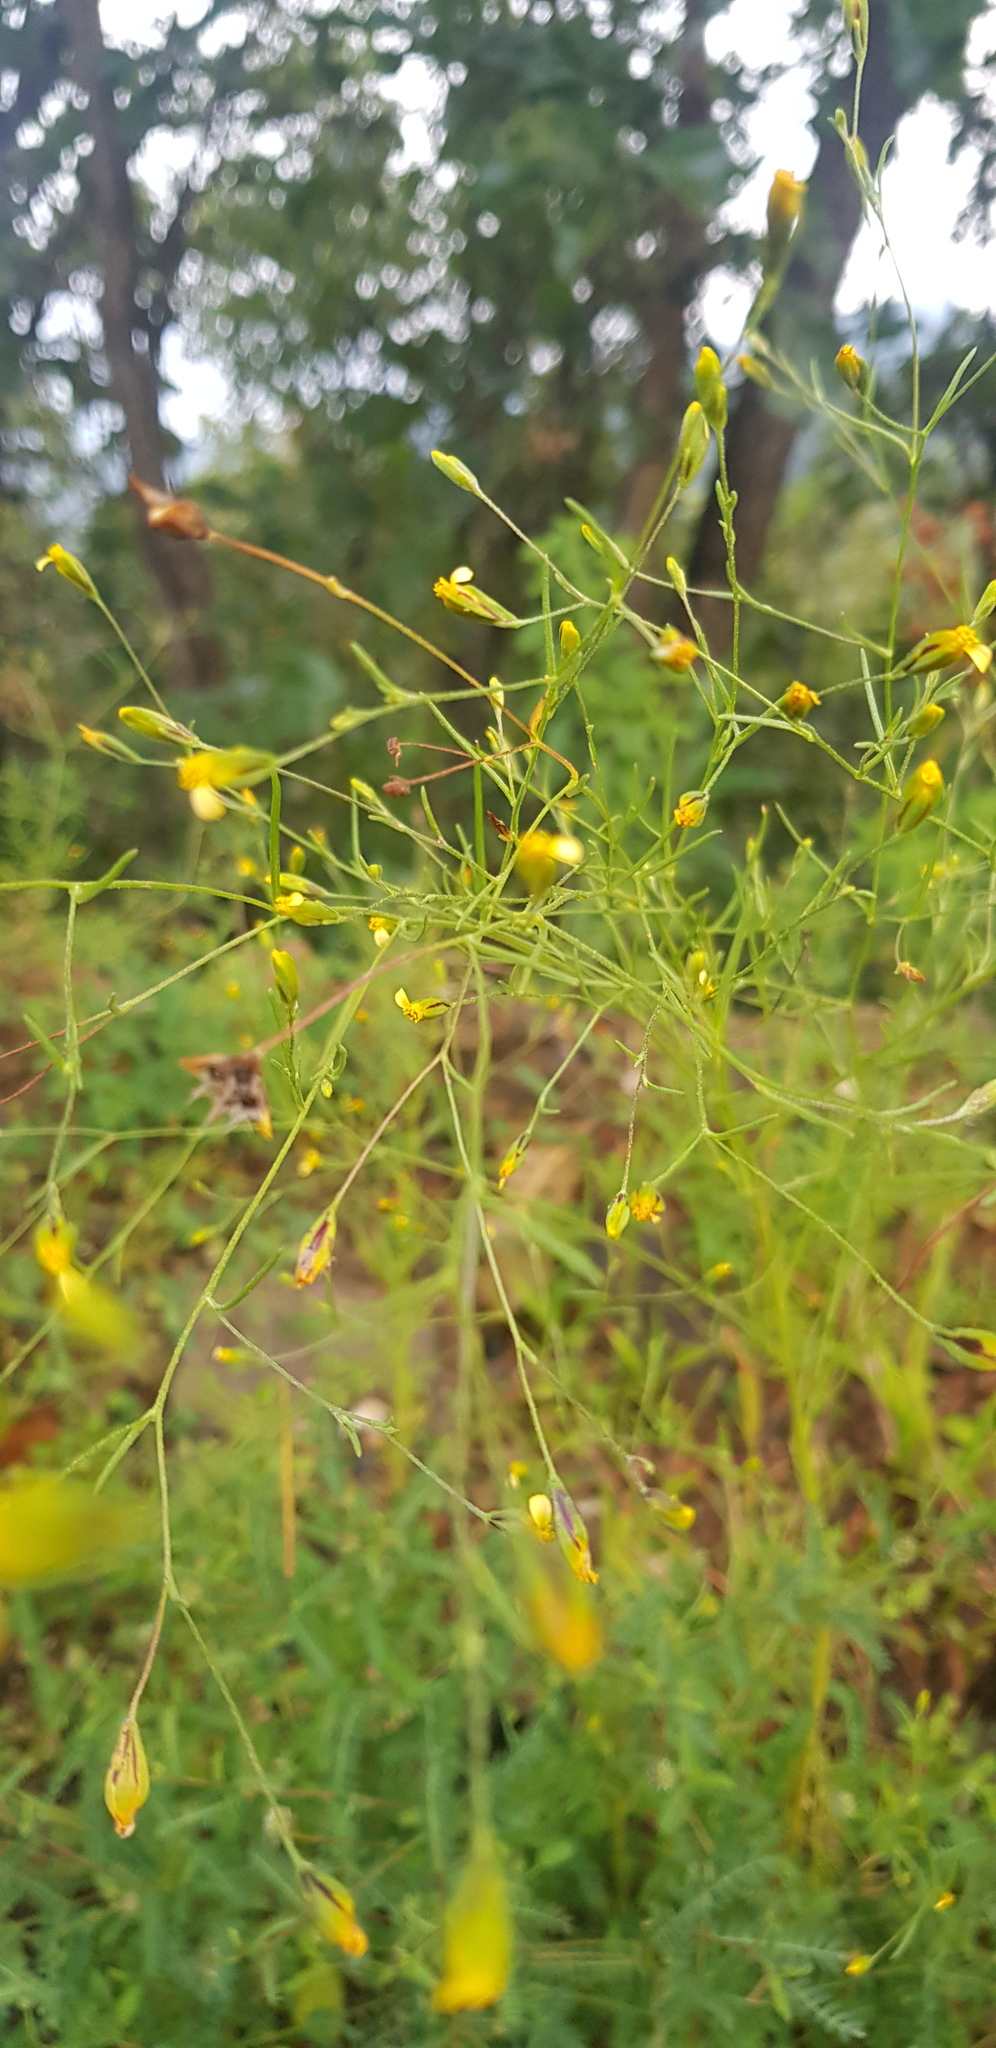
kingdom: Plantae
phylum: Tracheophyta
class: Magnoliopsida
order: Asterales
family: Asteraceae
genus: Schkuhria
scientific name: Schkuhria pinnata
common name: Dwarf marigold
